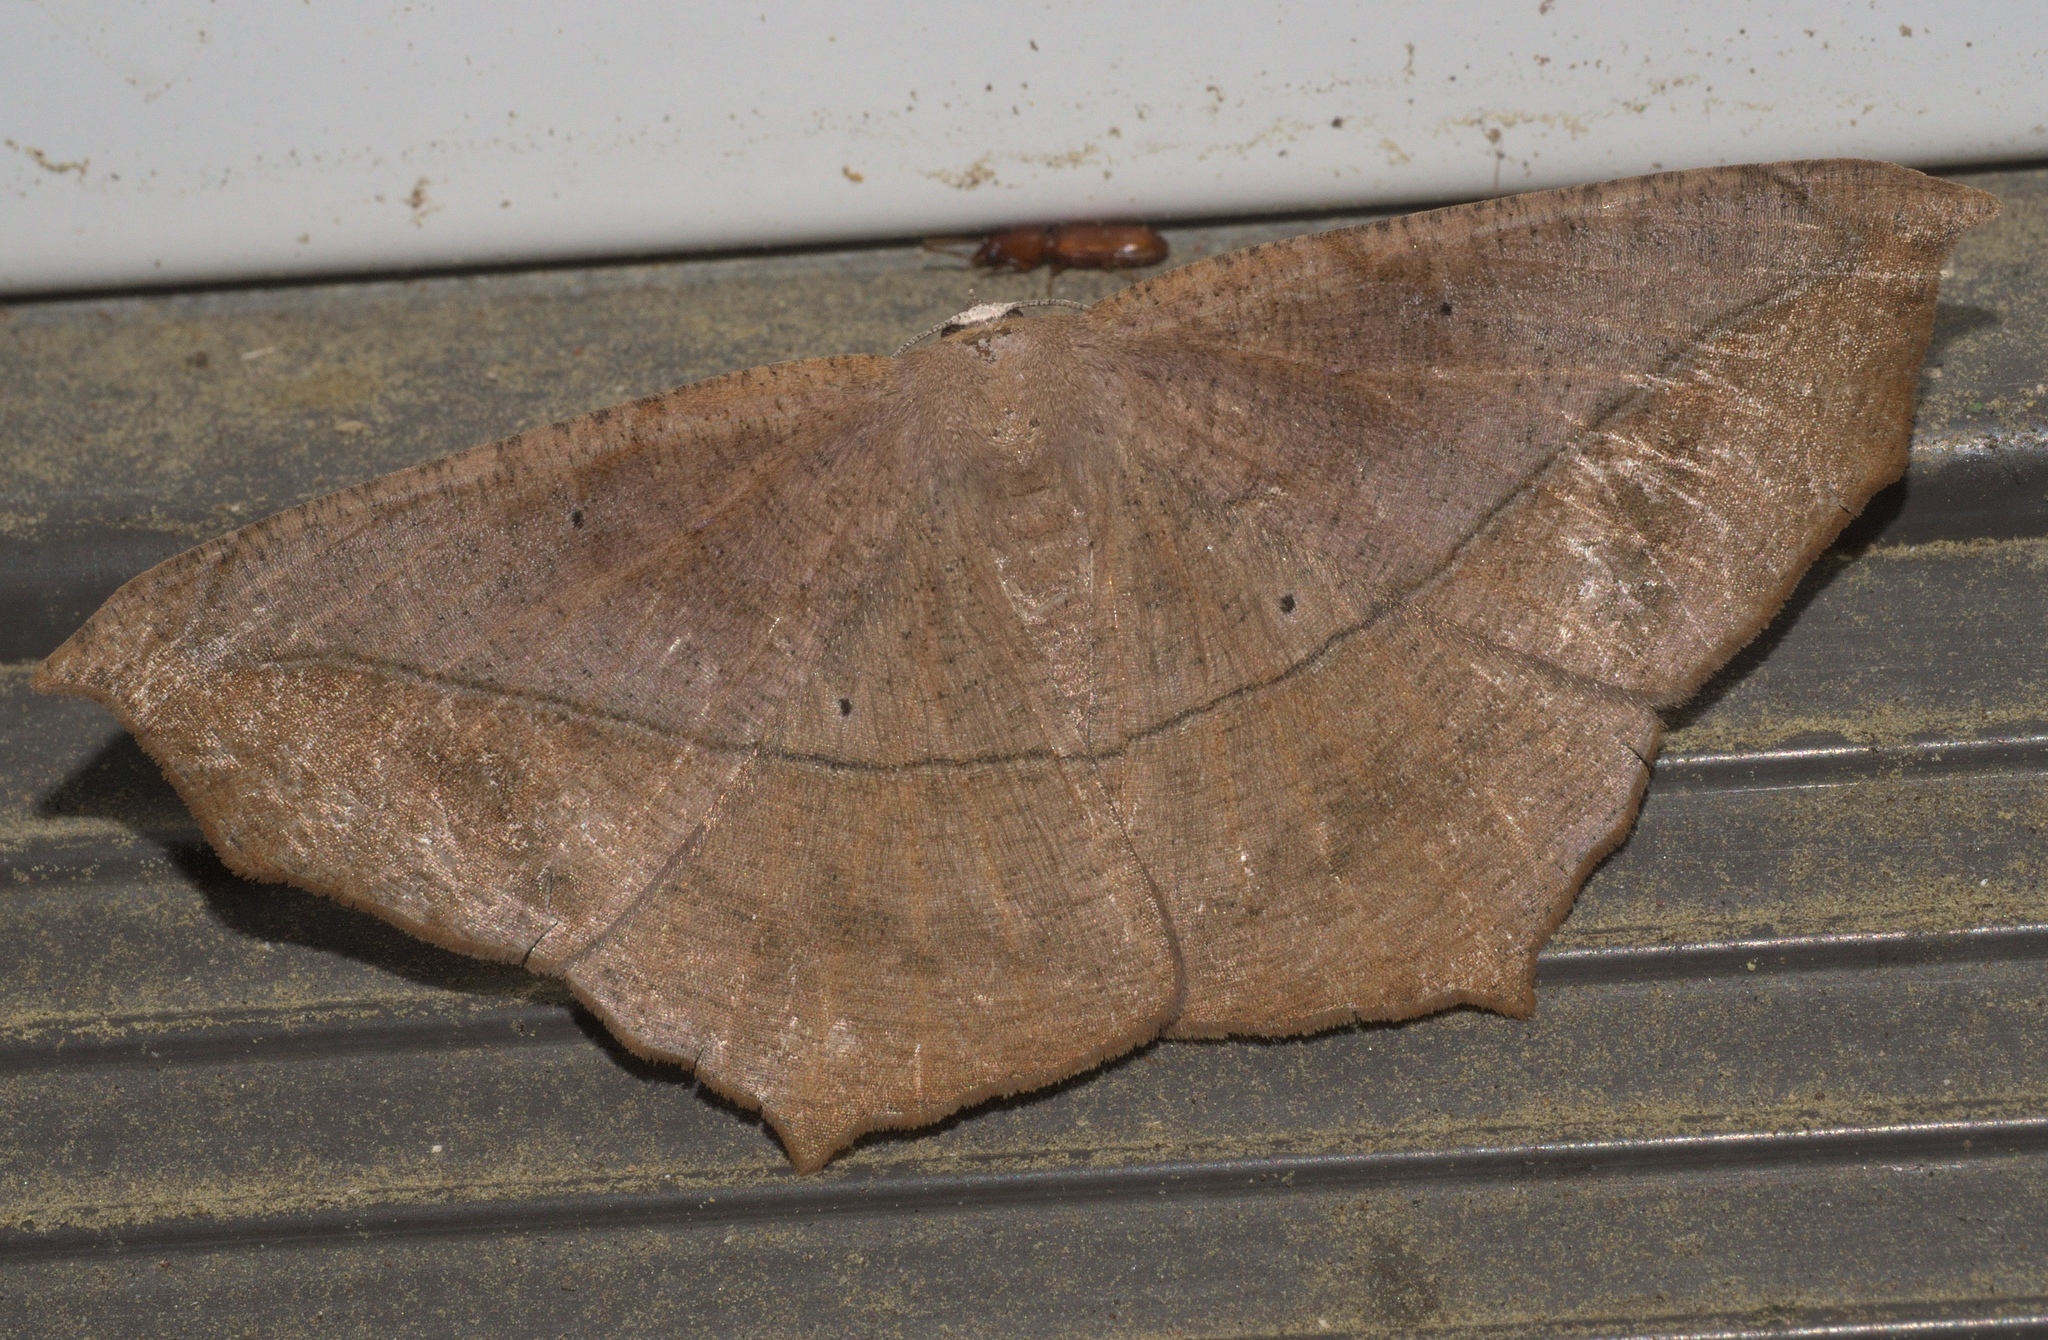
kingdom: Animalia
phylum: Arthropoda
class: Insecta
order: Lepidoptera
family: Geometridae
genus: Prochoerodes
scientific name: Prochoerodes lineola
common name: Large maple spanworm
